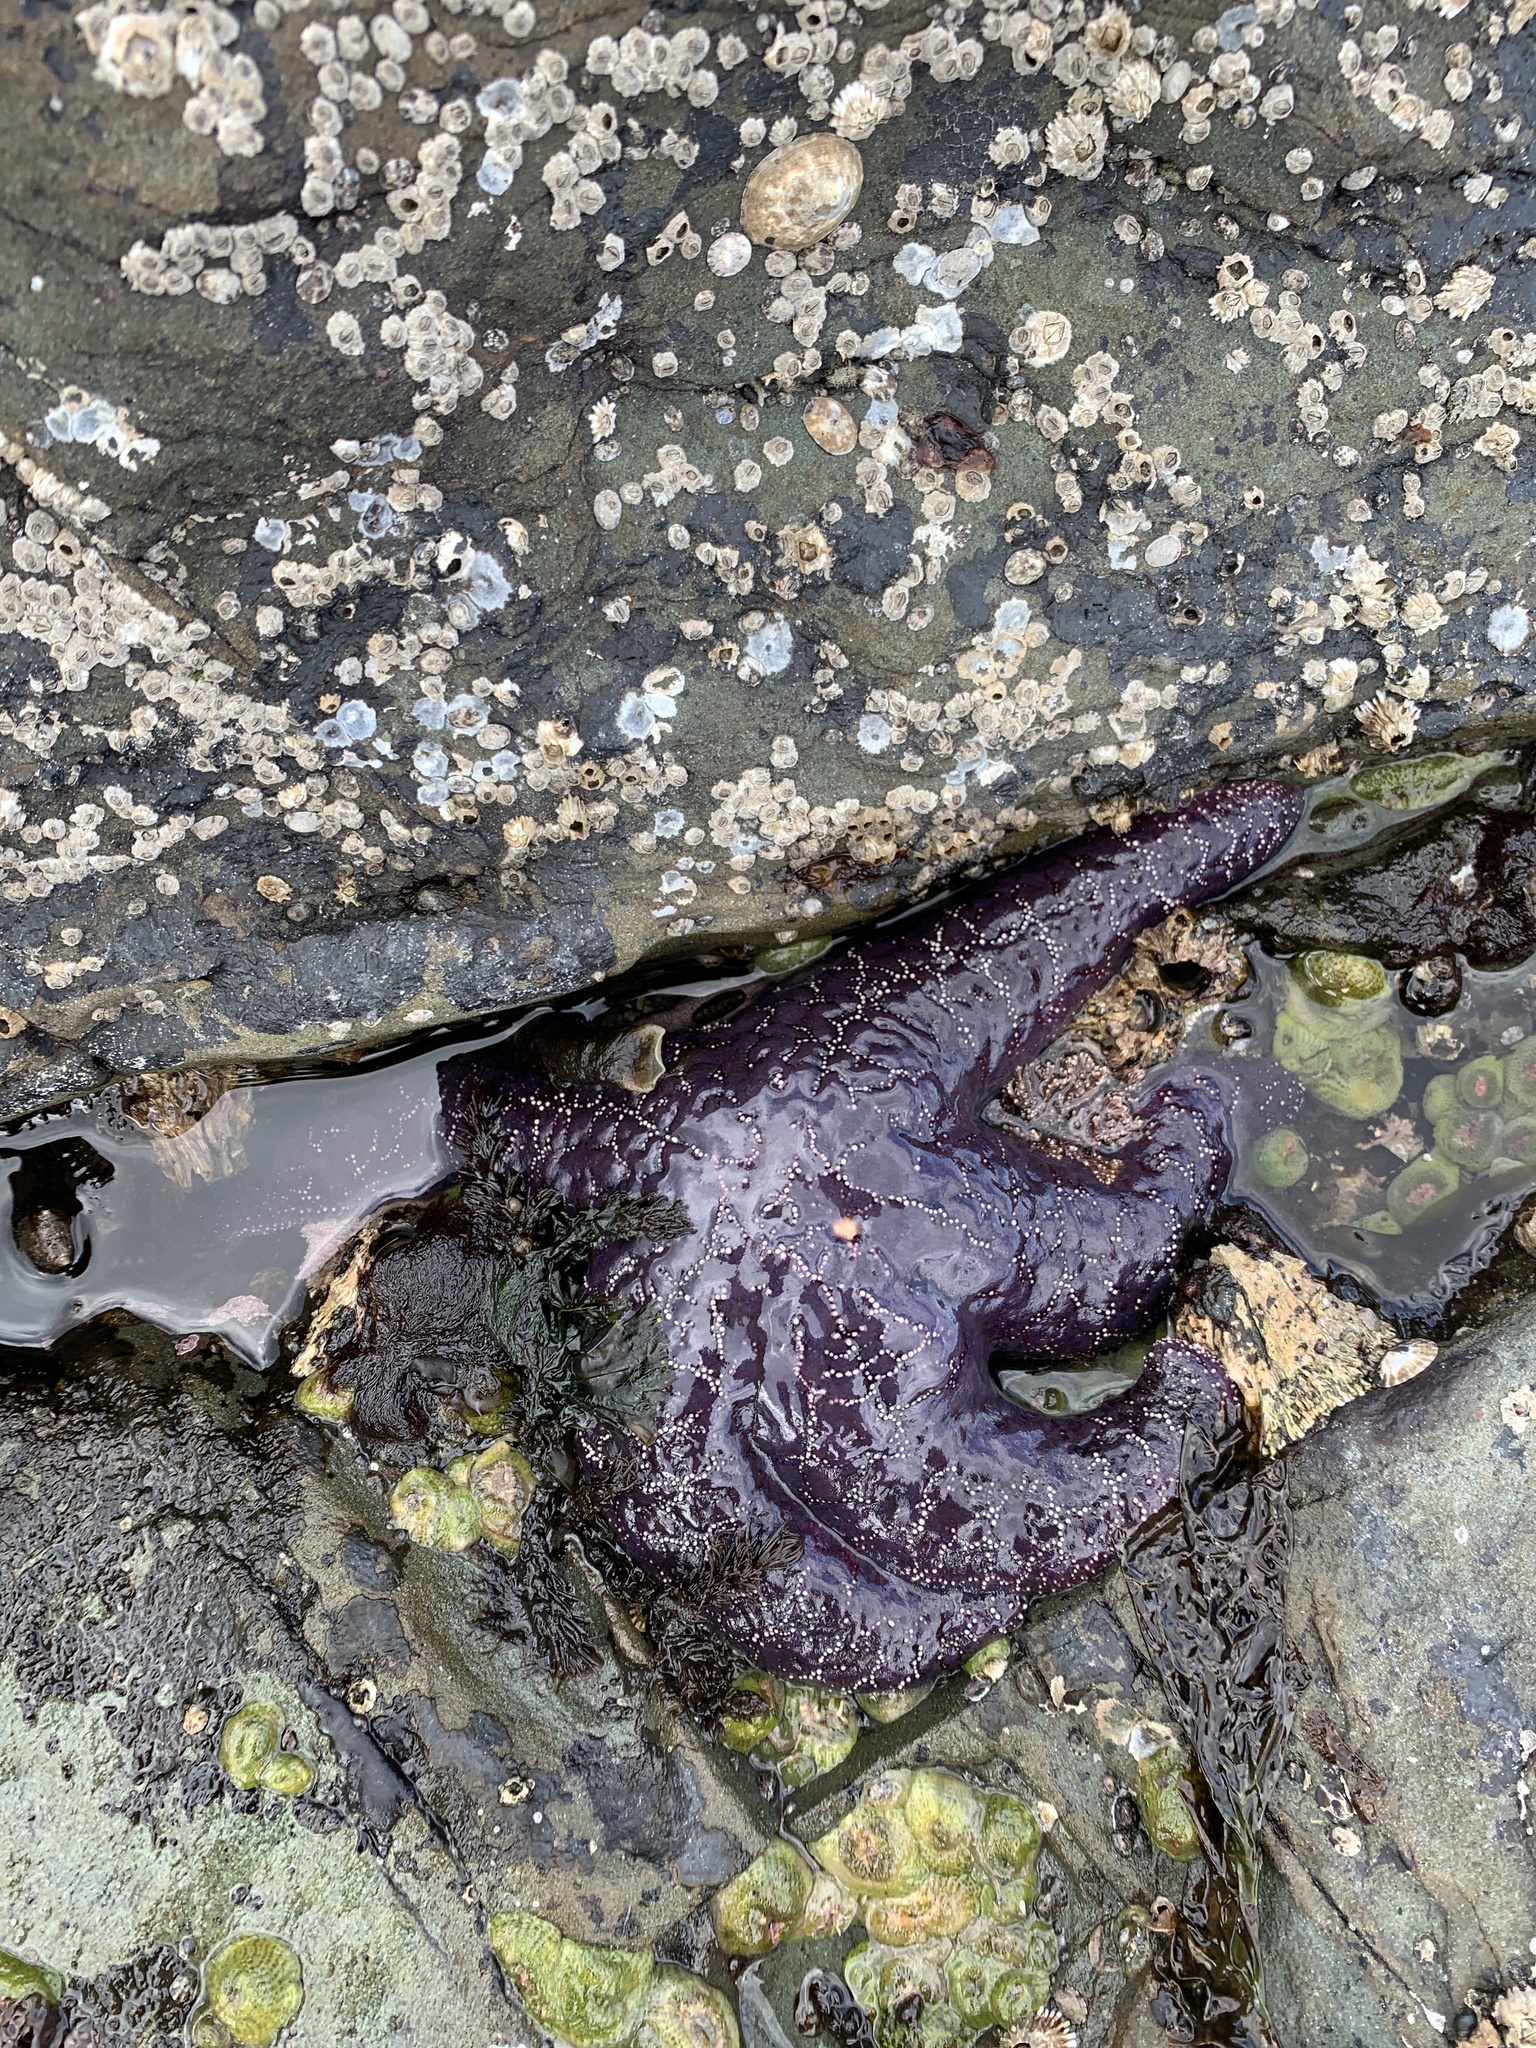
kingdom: Animalia
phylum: Echinodermata
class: Asteroidea
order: Forcipulatida
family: Asteriidae
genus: Pisaster
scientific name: Pisaster ochraceus
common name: Ochre stars
